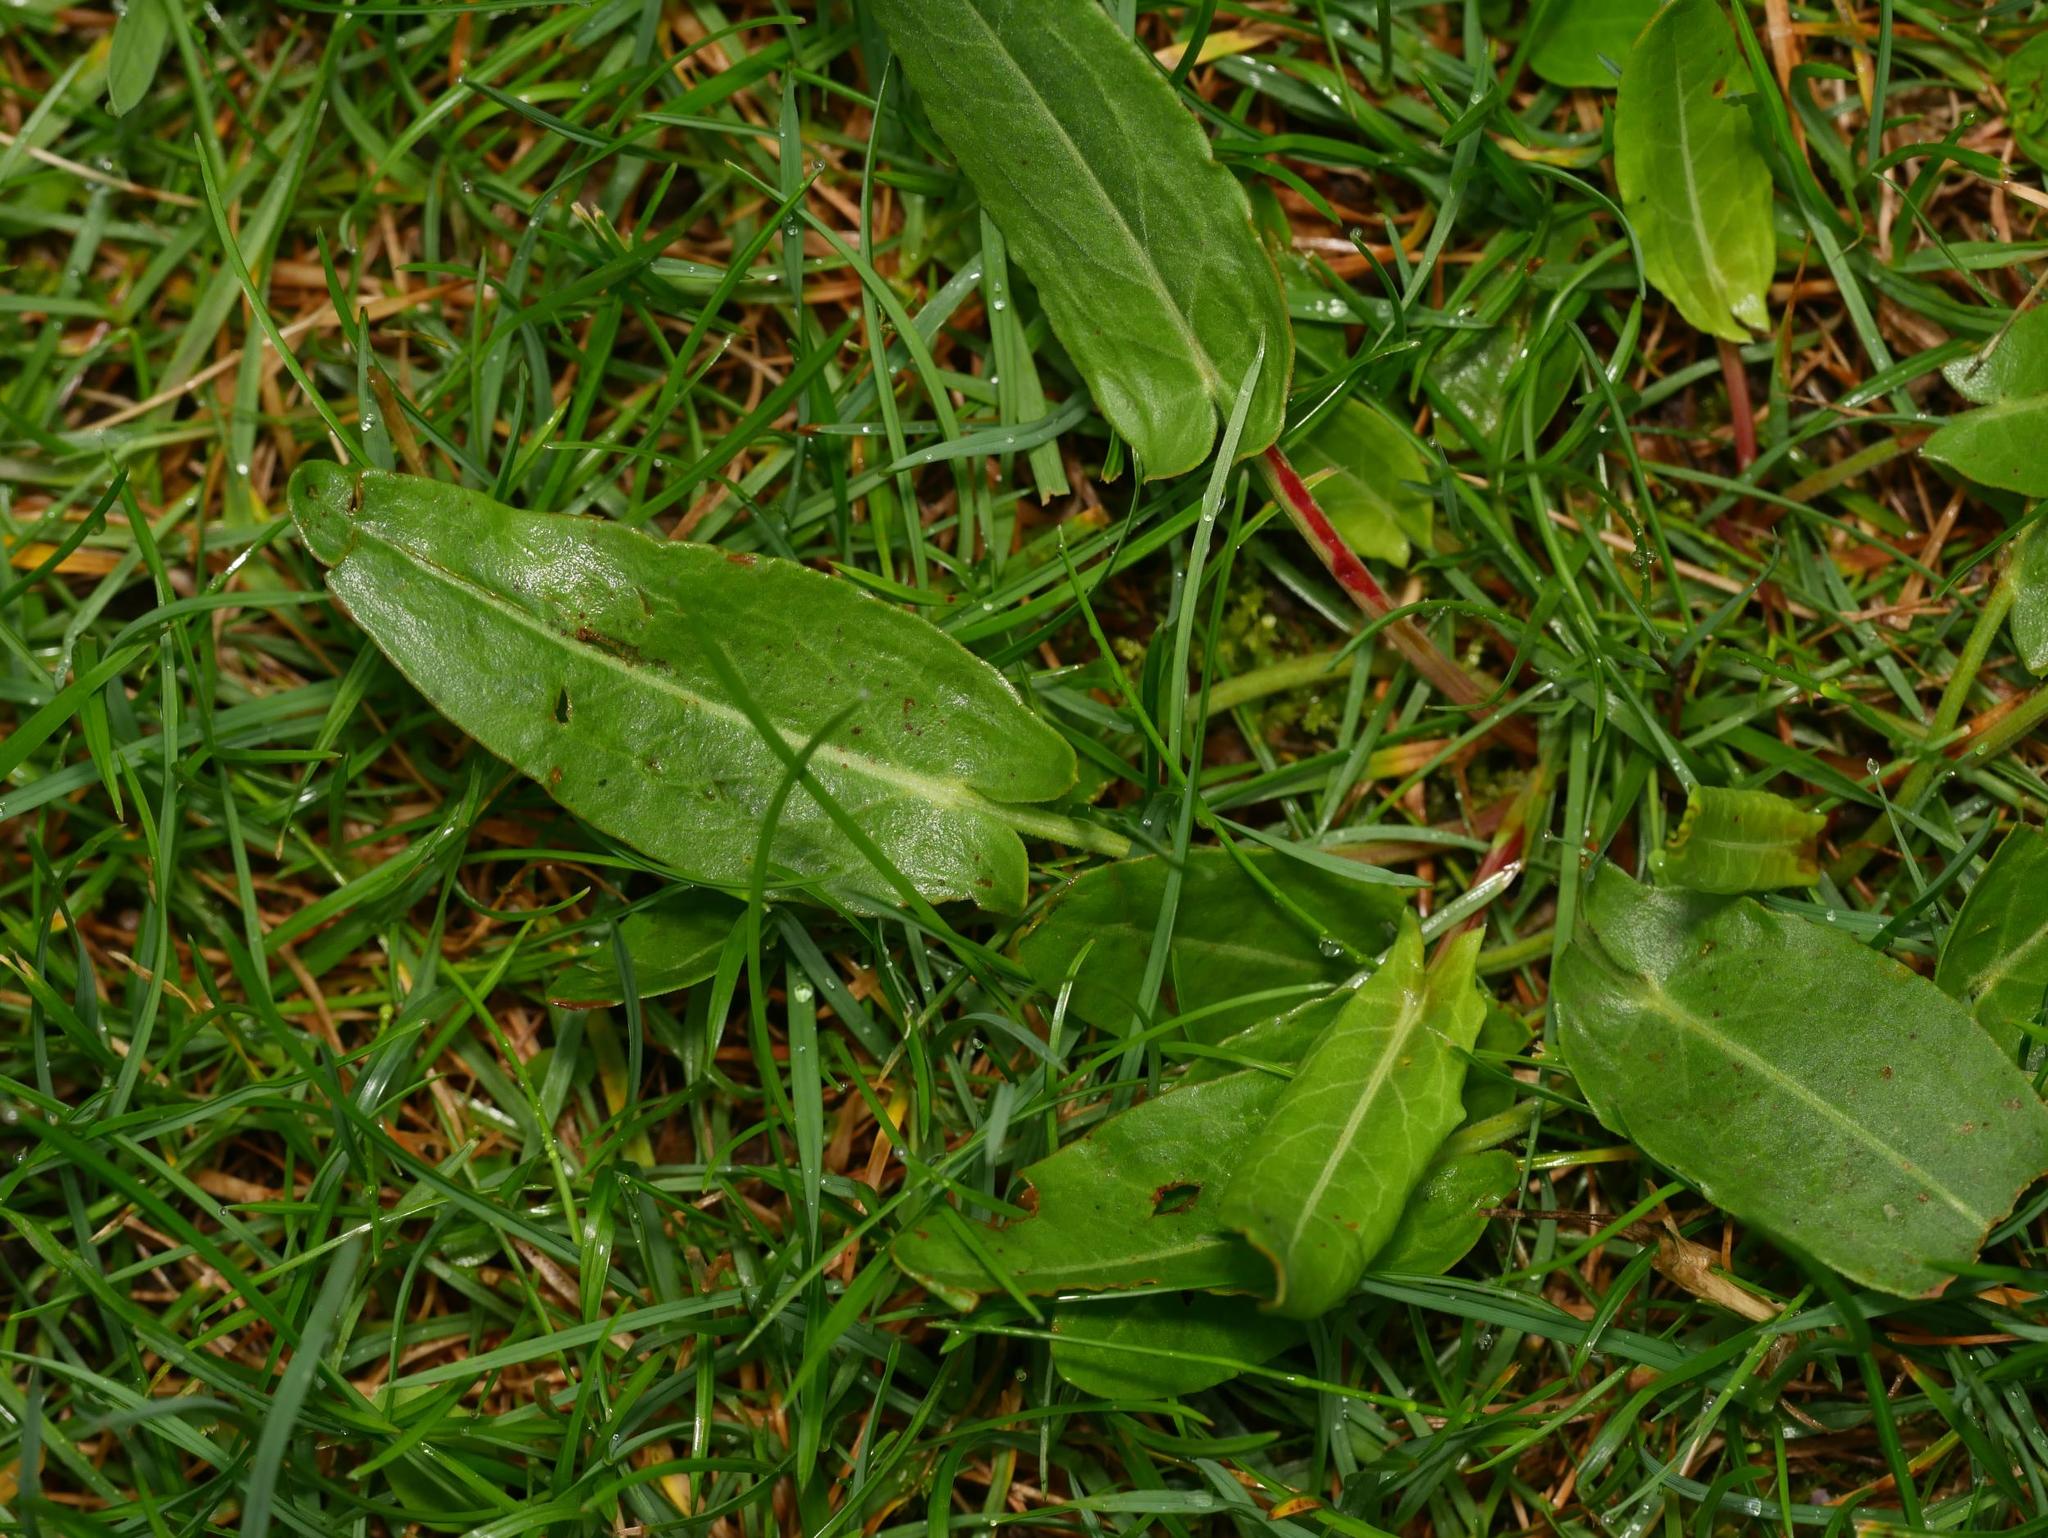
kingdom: Plantae
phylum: Tracheophyta
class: Magnoliopsida
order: Caryophyllales
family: Polygonaceae
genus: Rumex
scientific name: Rumex acetosa
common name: Garden sorrel
